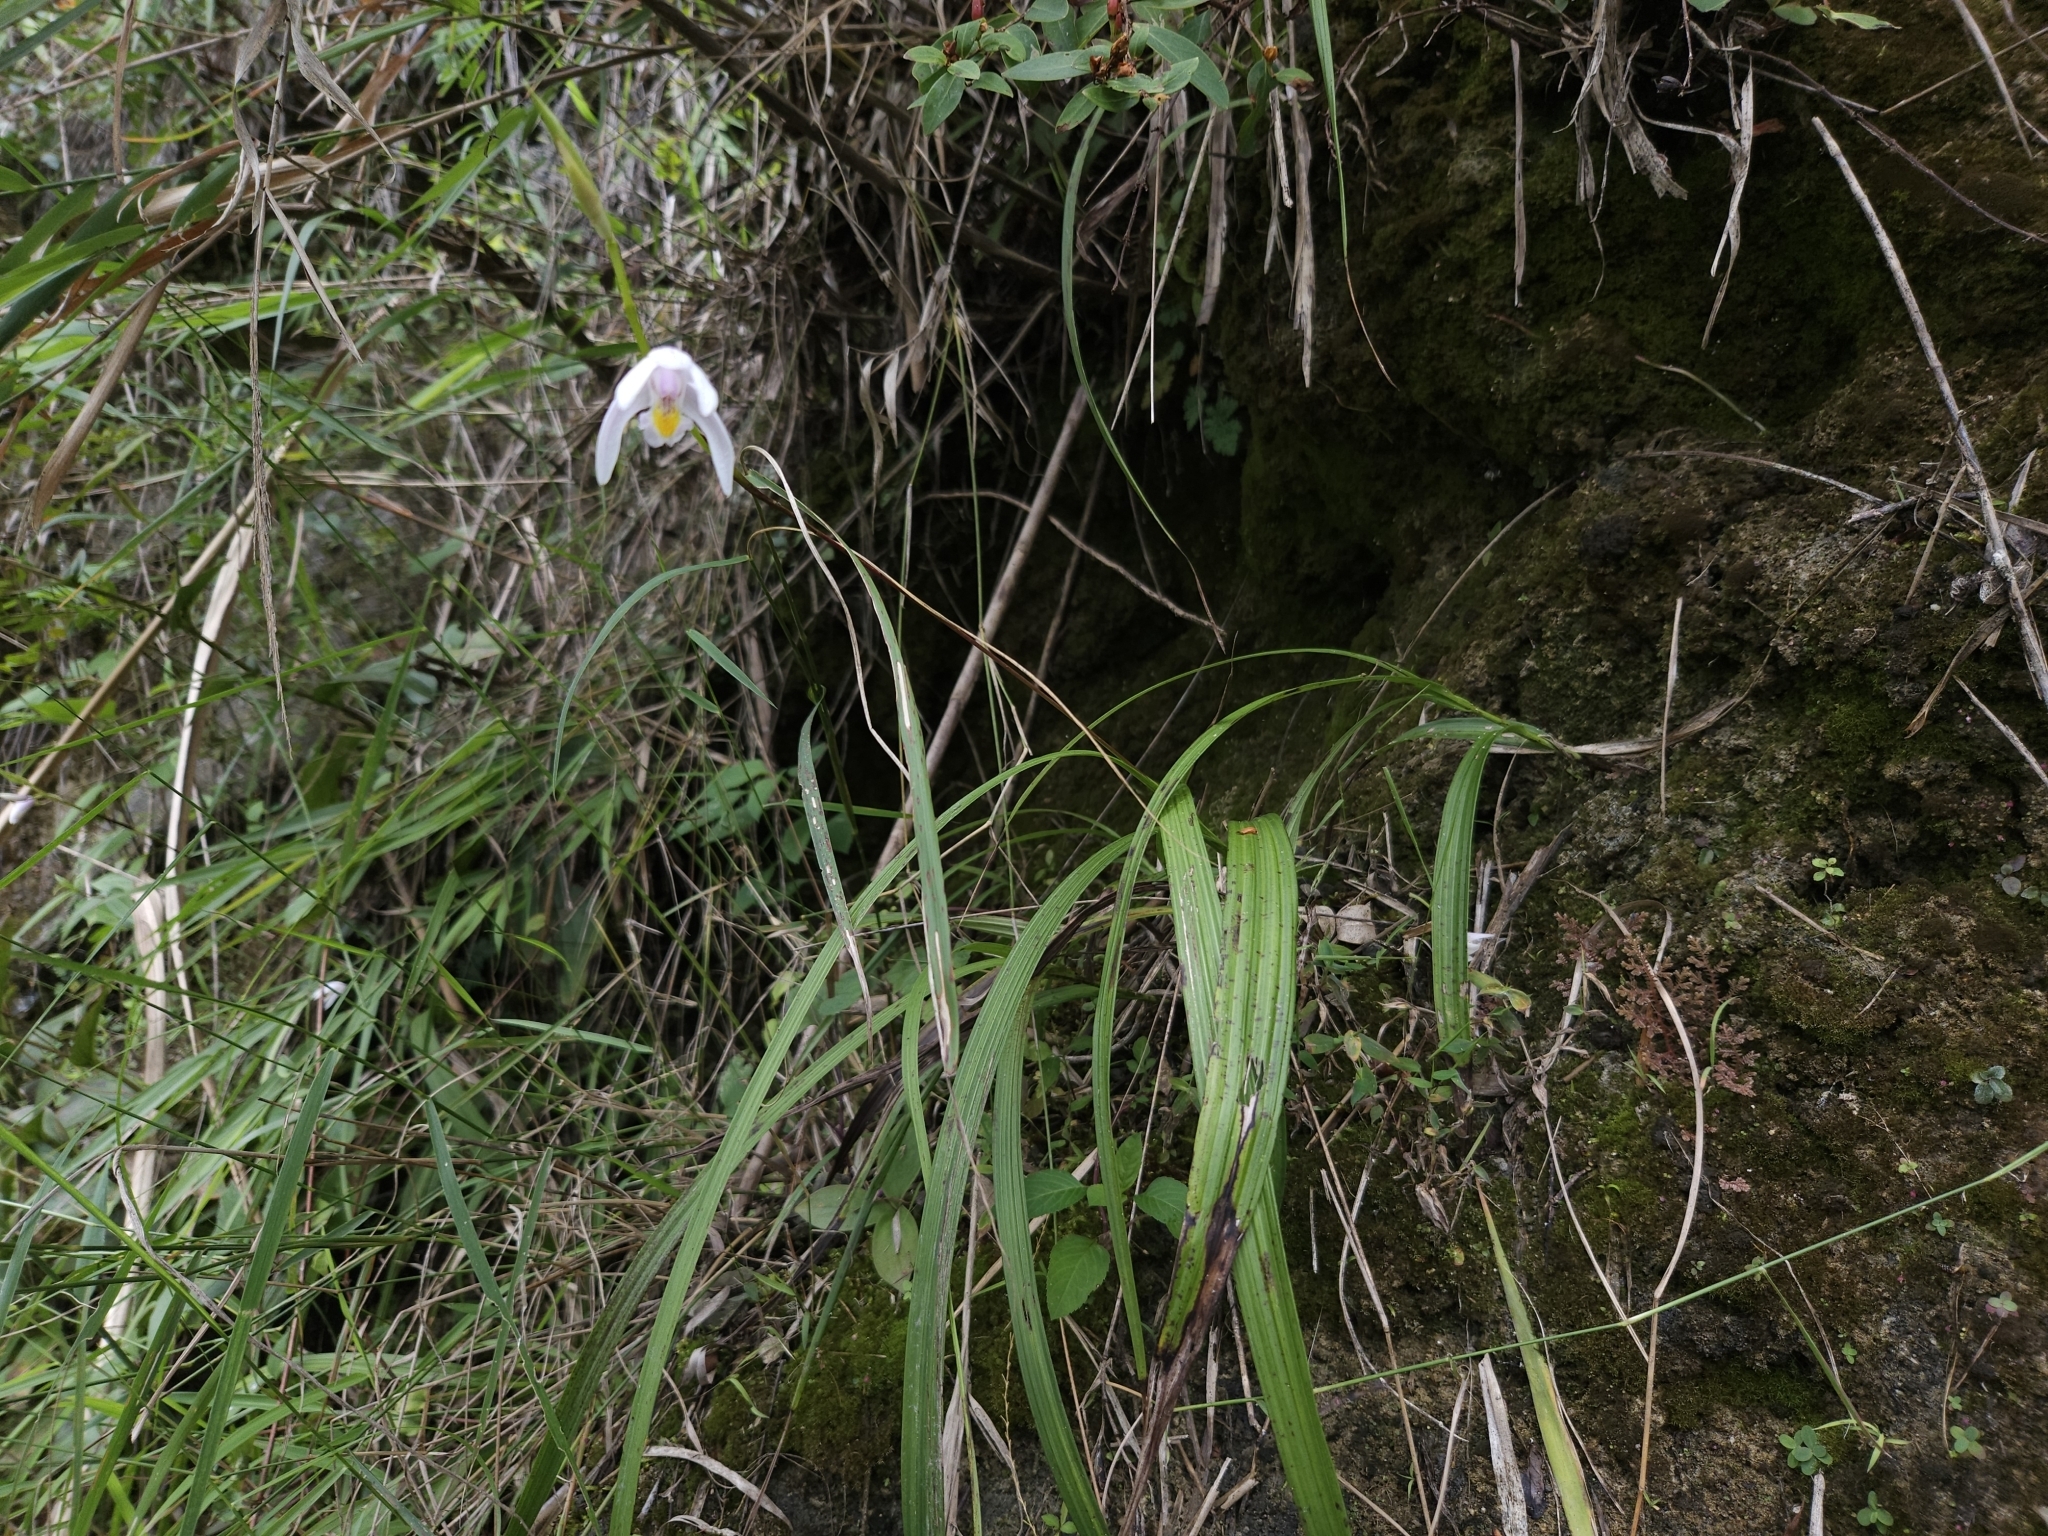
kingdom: Plantae
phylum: Tracheophyta
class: Liliopsida
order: Asparagales
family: Orchidaceae
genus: Bletilla
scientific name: Bletilla formosana
